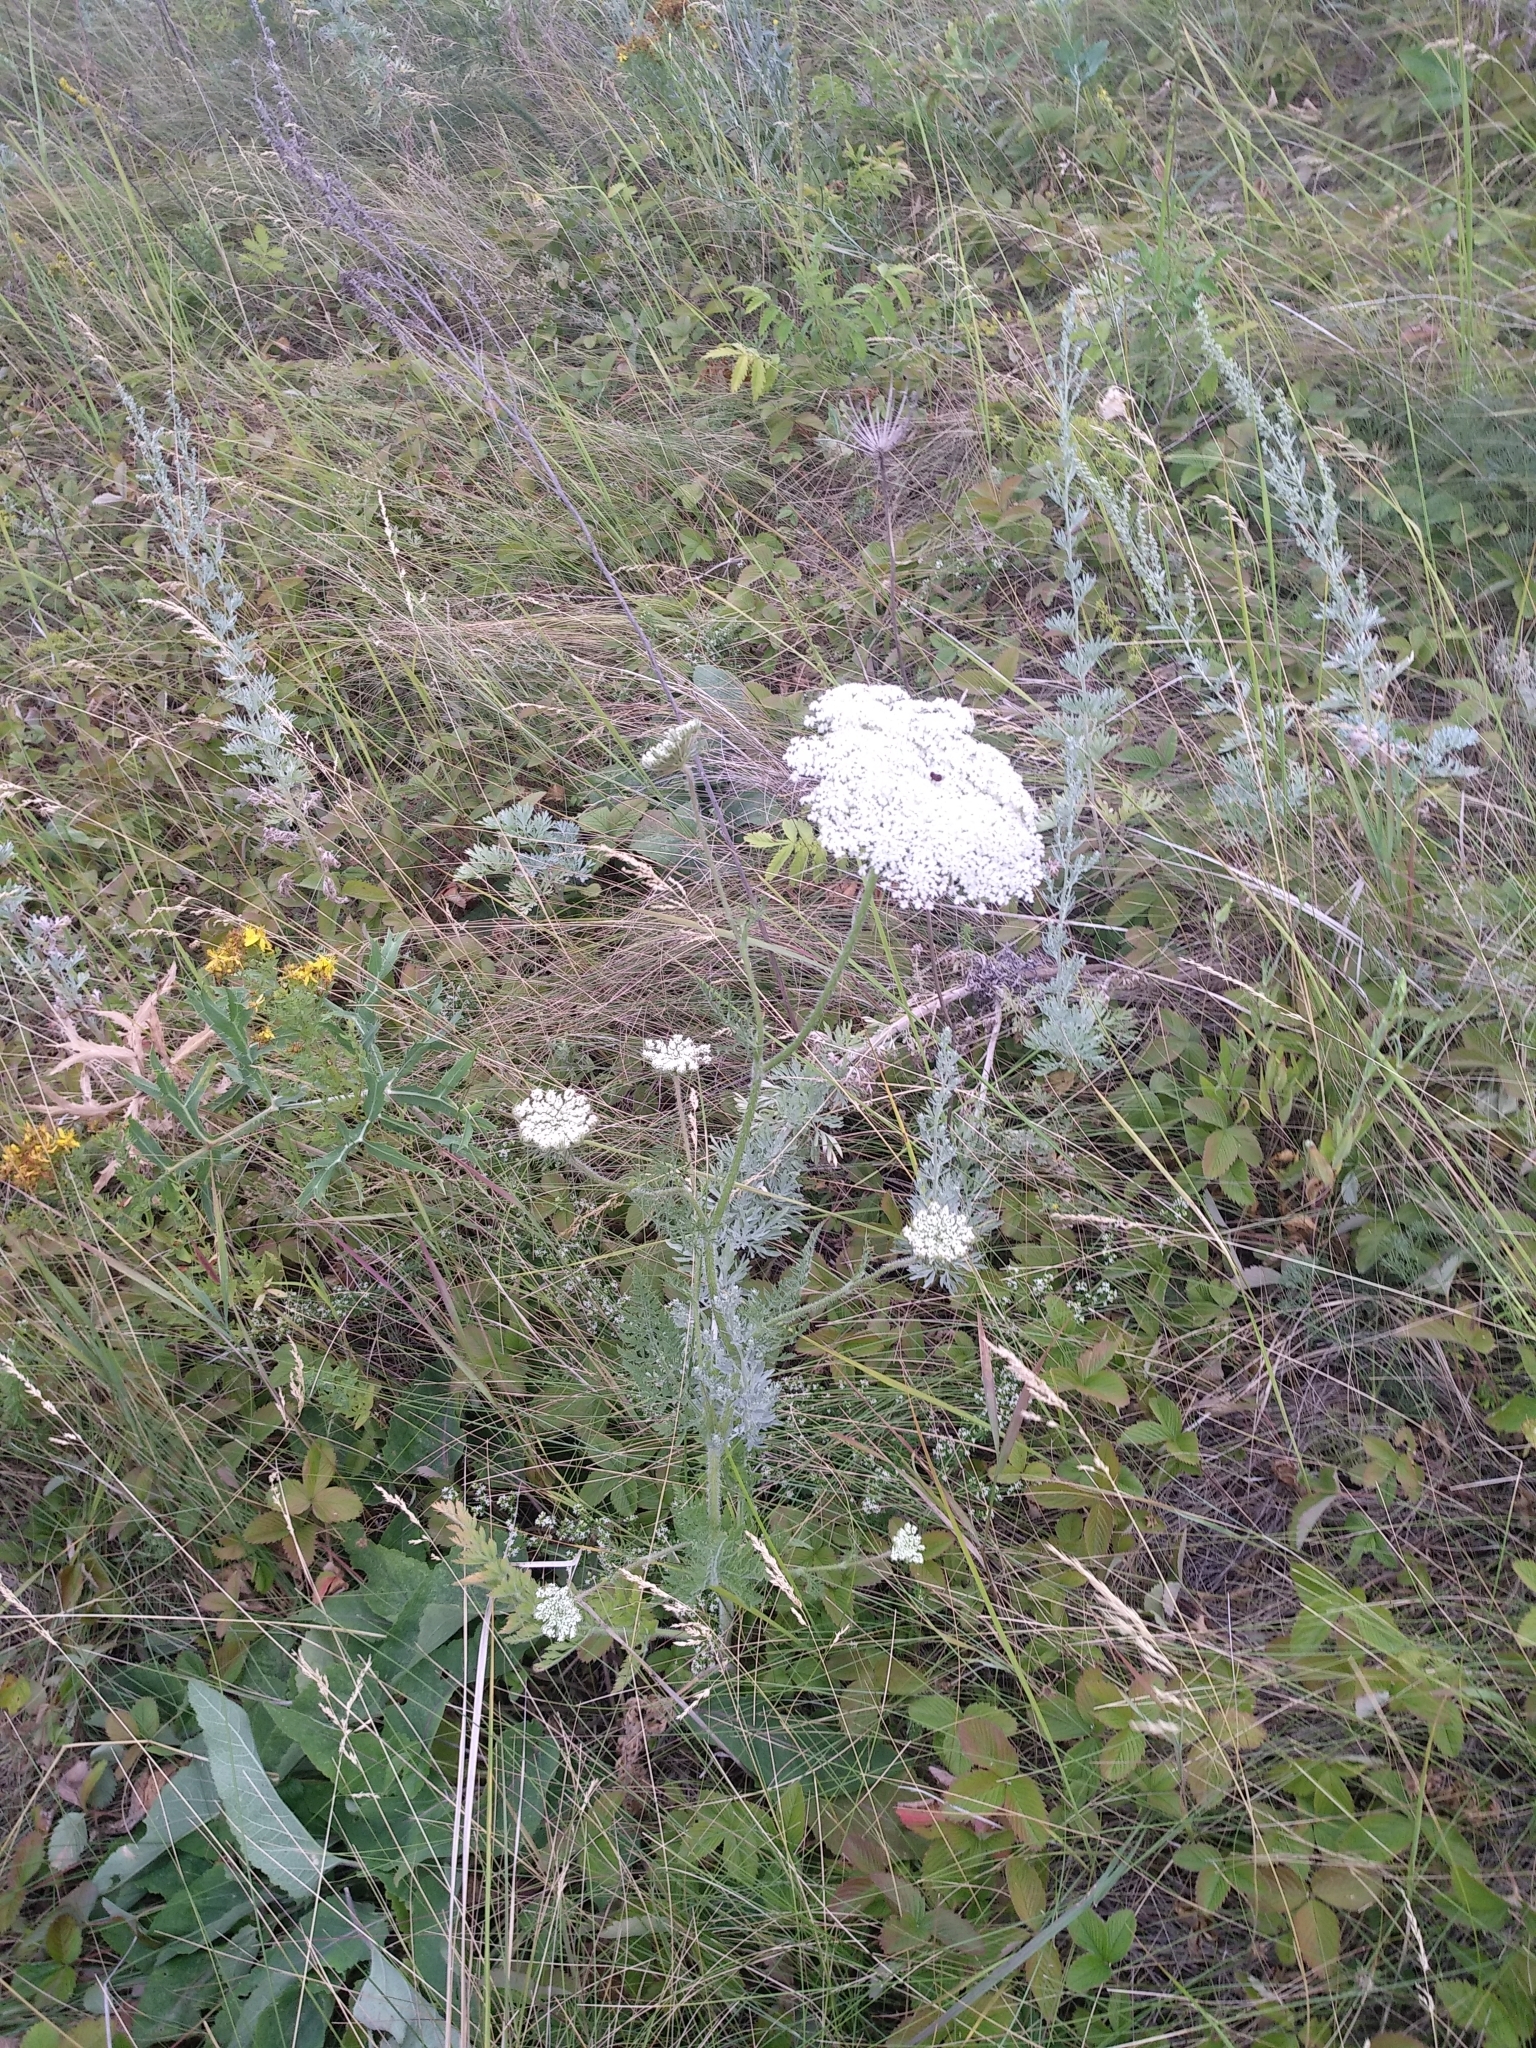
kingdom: Plantae
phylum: Tracheophyta
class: Magnoliopsida
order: Apiales
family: Apiaceae
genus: Daucus
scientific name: Daucus carota
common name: Wild carrot
